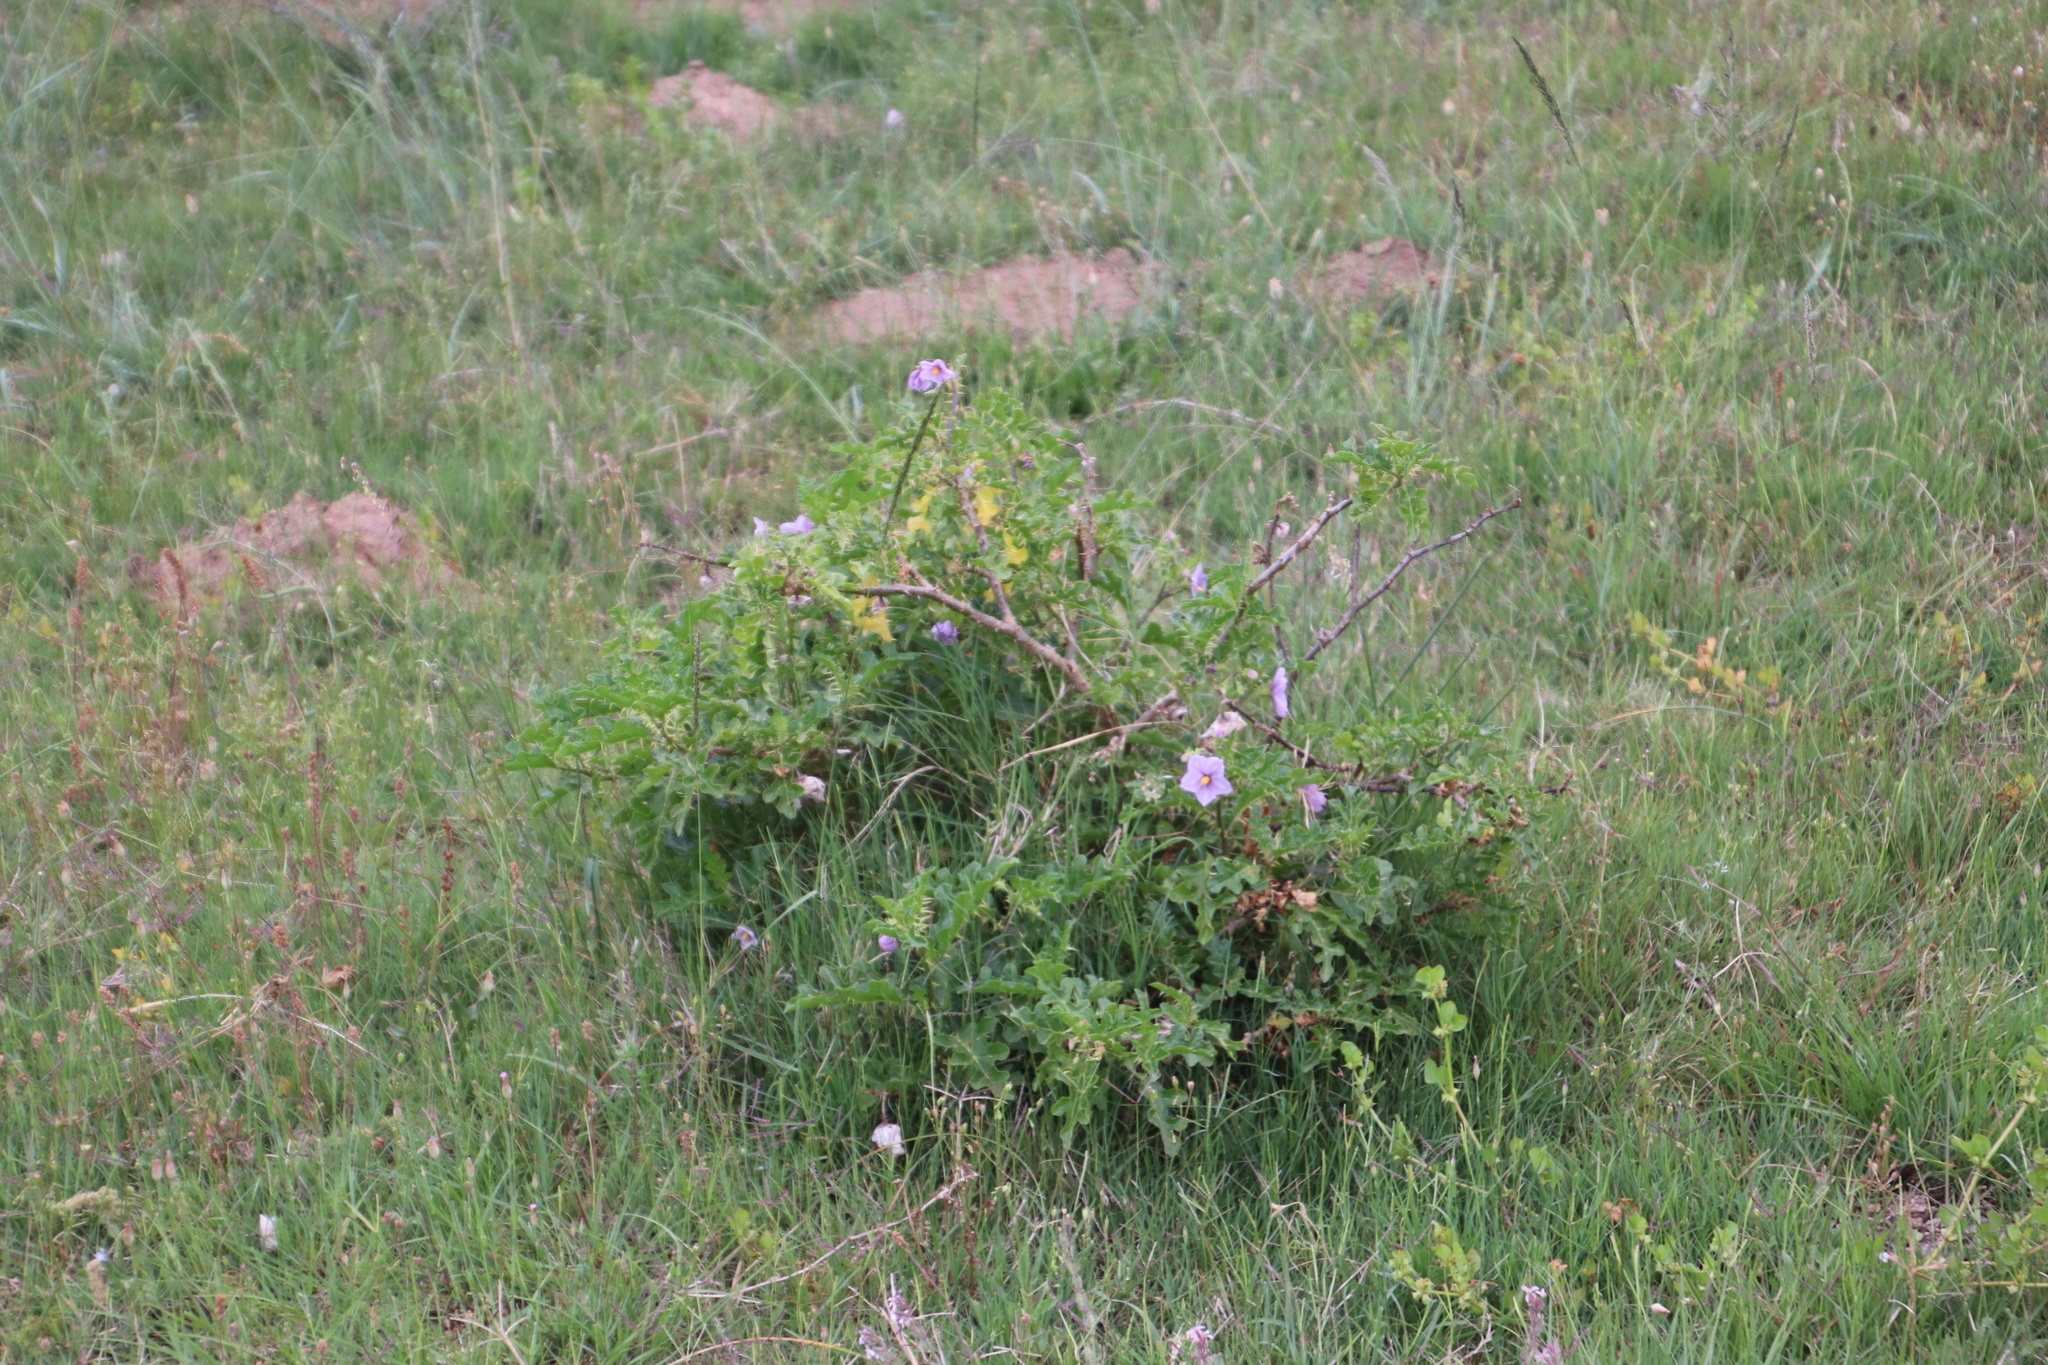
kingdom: Plantae
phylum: Tracheophyta
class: Magnoliopsida
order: Solanales
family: Solanaceae
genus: Solanum
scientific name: Solanum linnaeanum
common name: Nightshade
